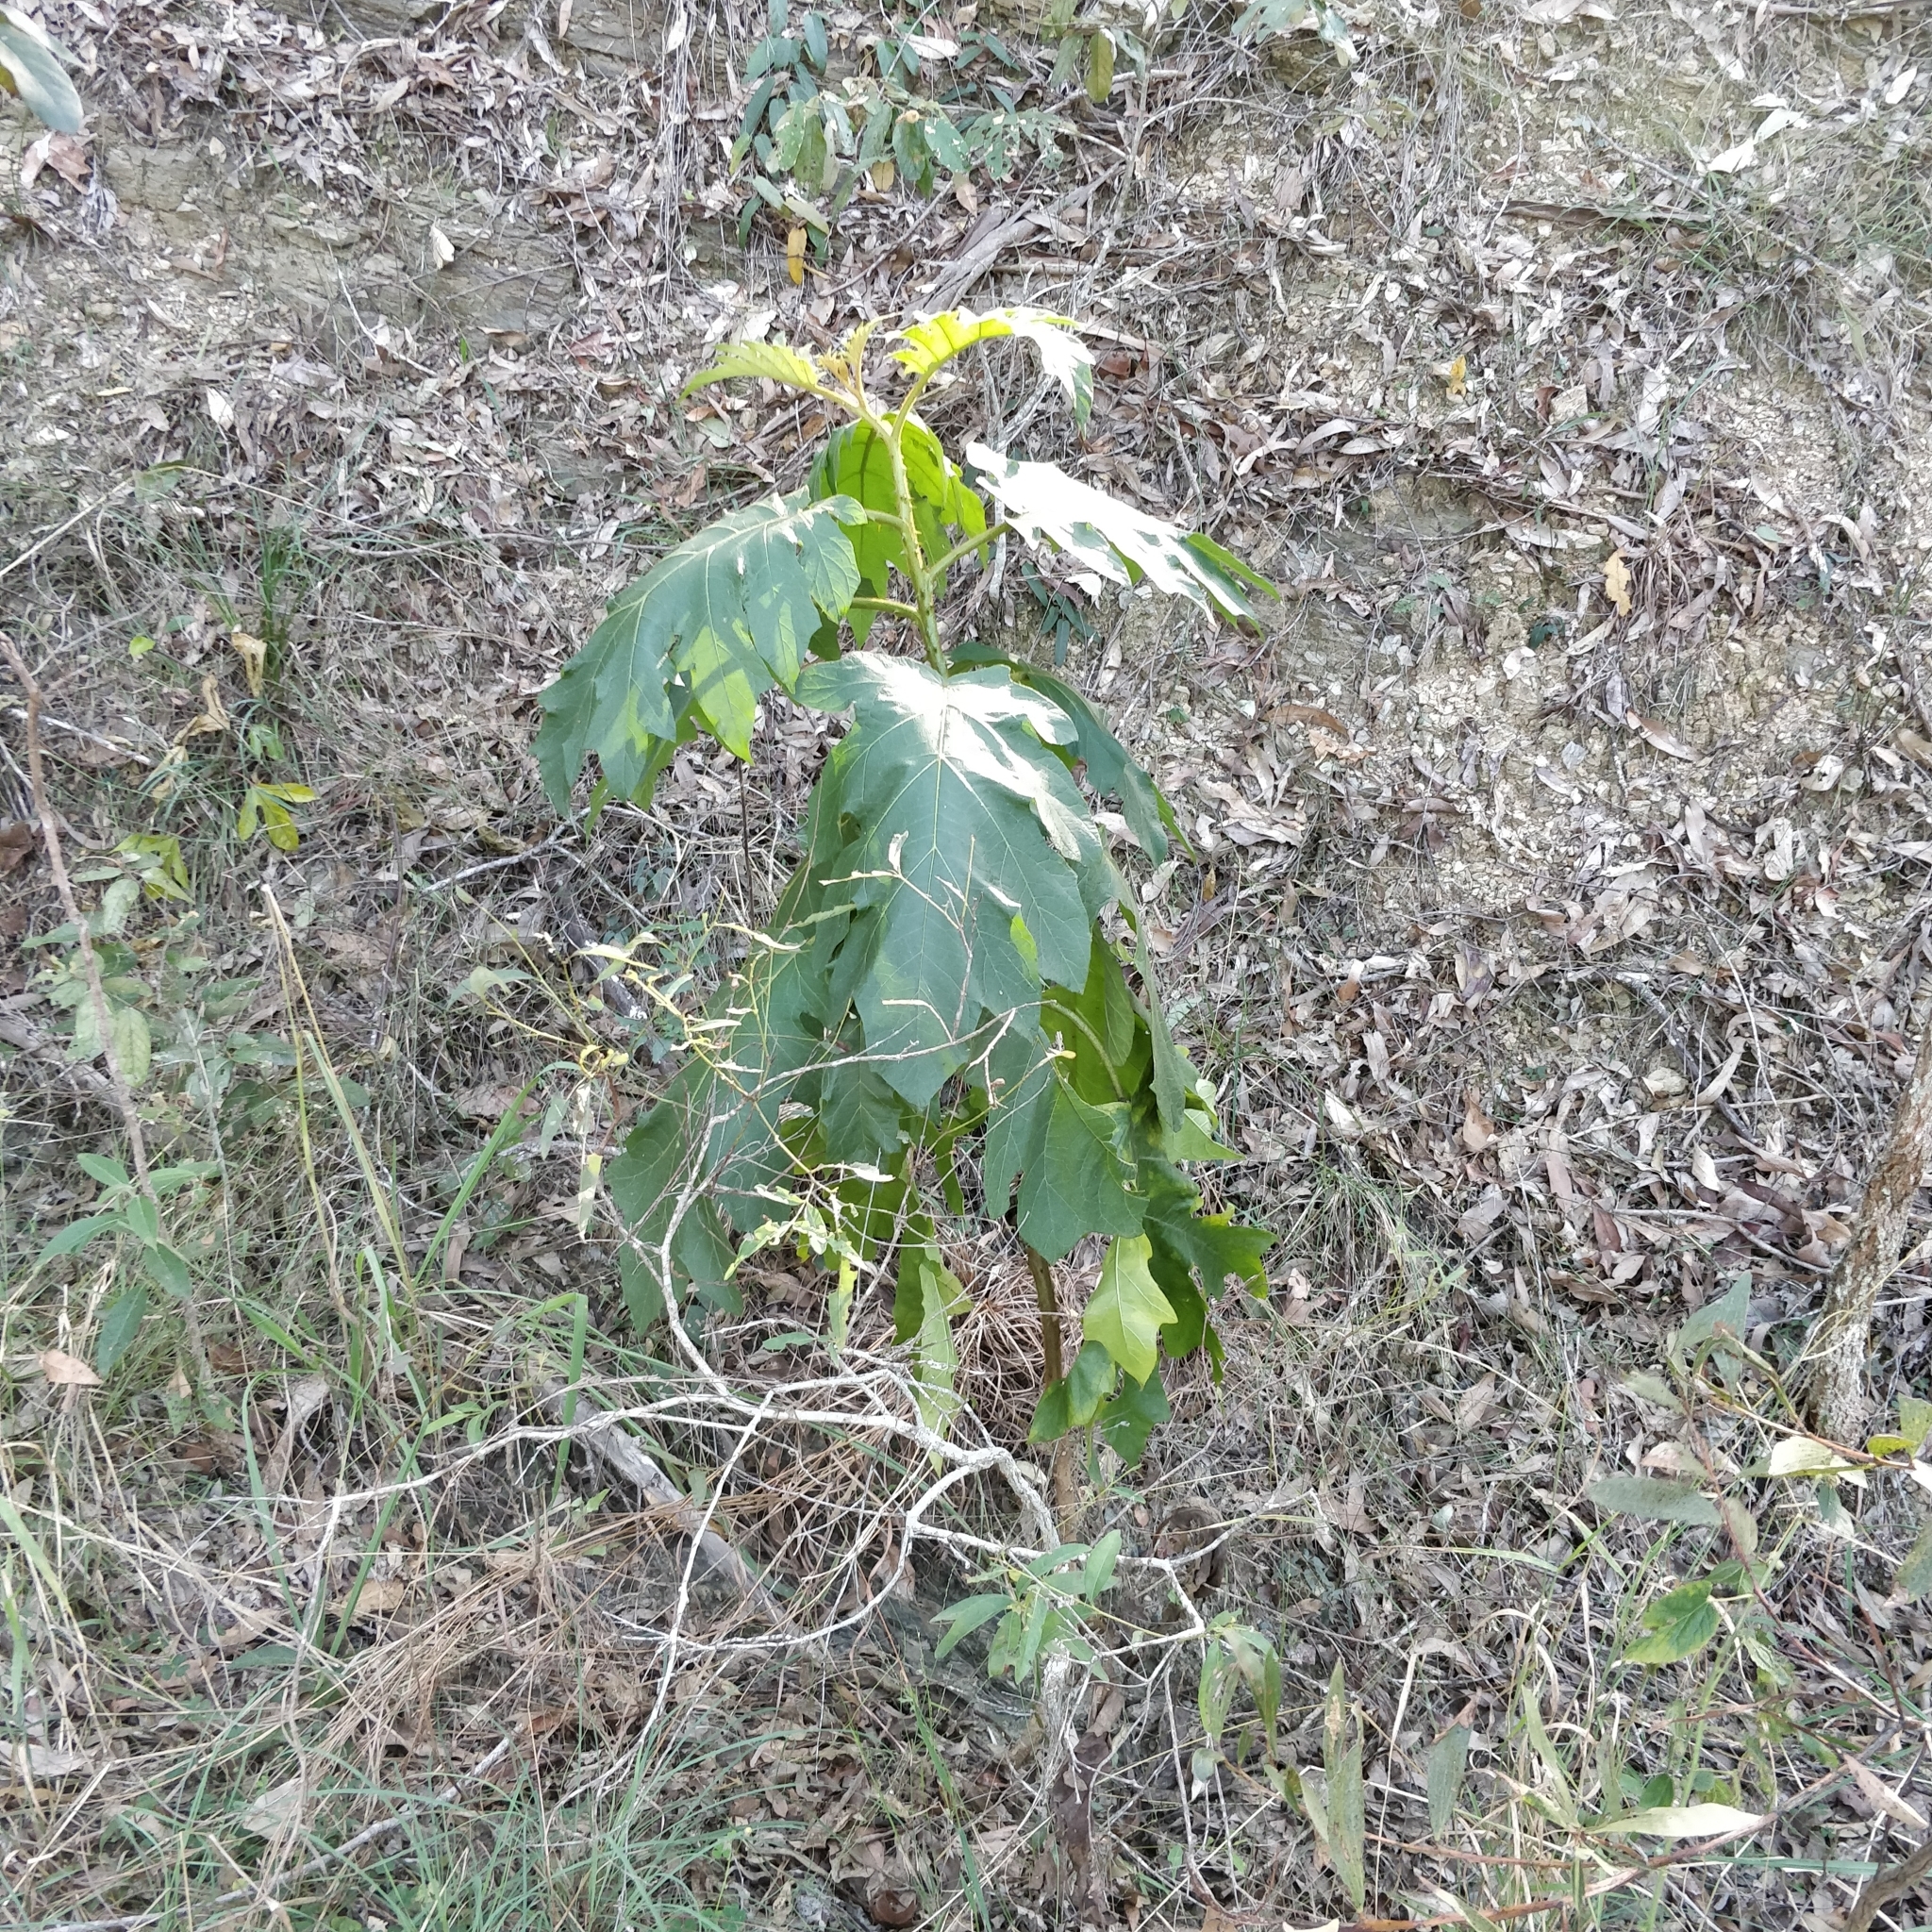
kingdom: Plantae
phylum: Tracheophyta
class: Magnoliopsida
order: Solanales
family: Solanaceae
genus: Solanum
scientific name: Solanum chrysotrichum
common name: Nightshade
